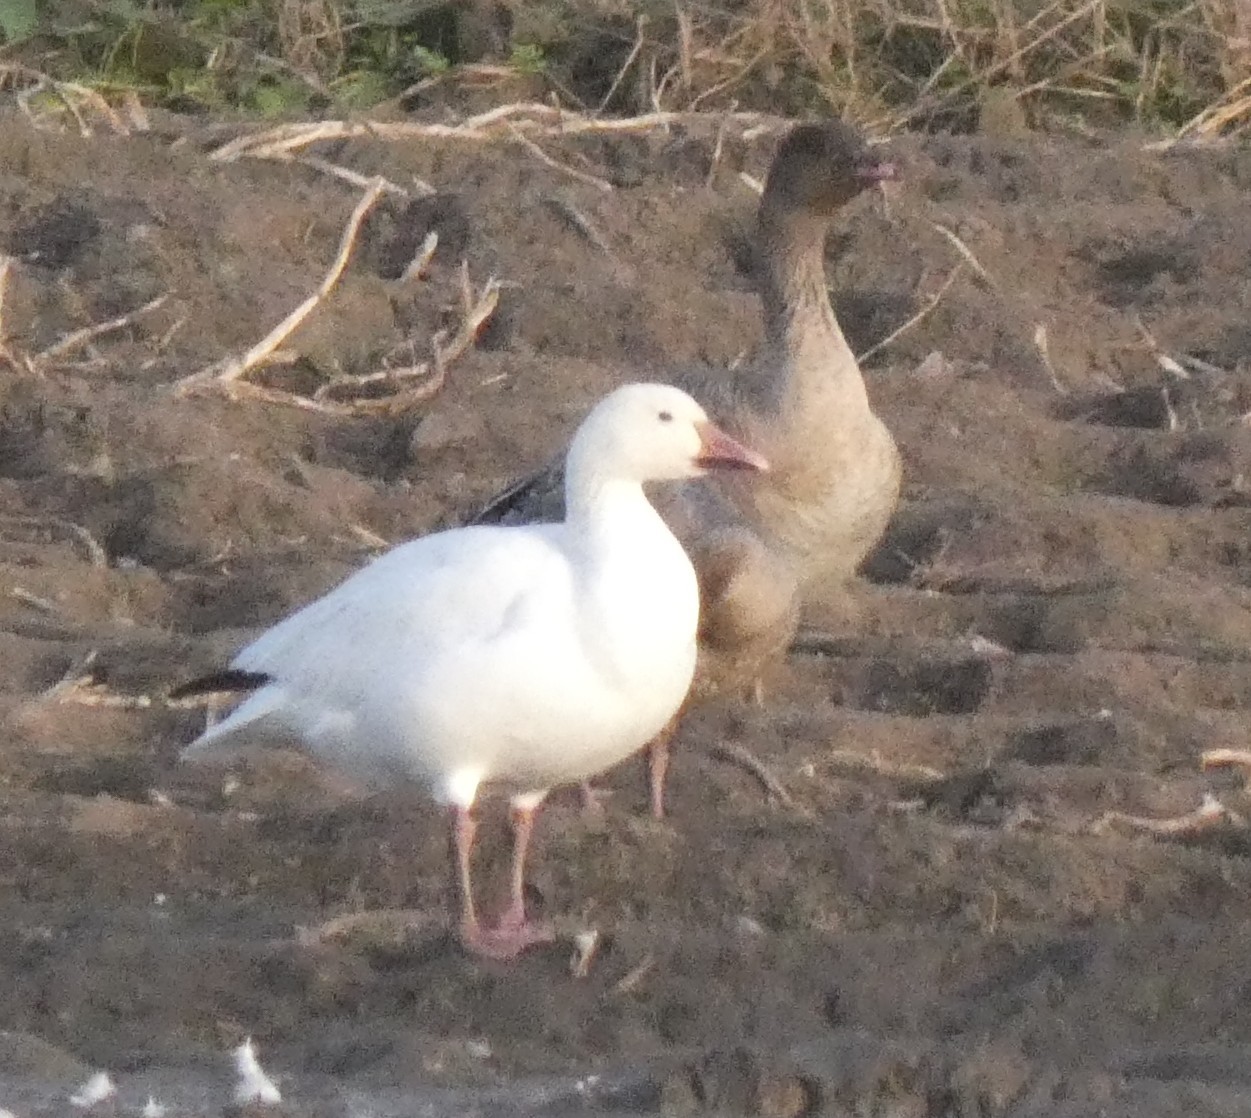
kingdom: Animalia
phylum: Chordata
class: Aves
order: Anseriformes
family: Anatidae
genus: Anser
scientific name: Anser caerulescens
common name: Snow goose
